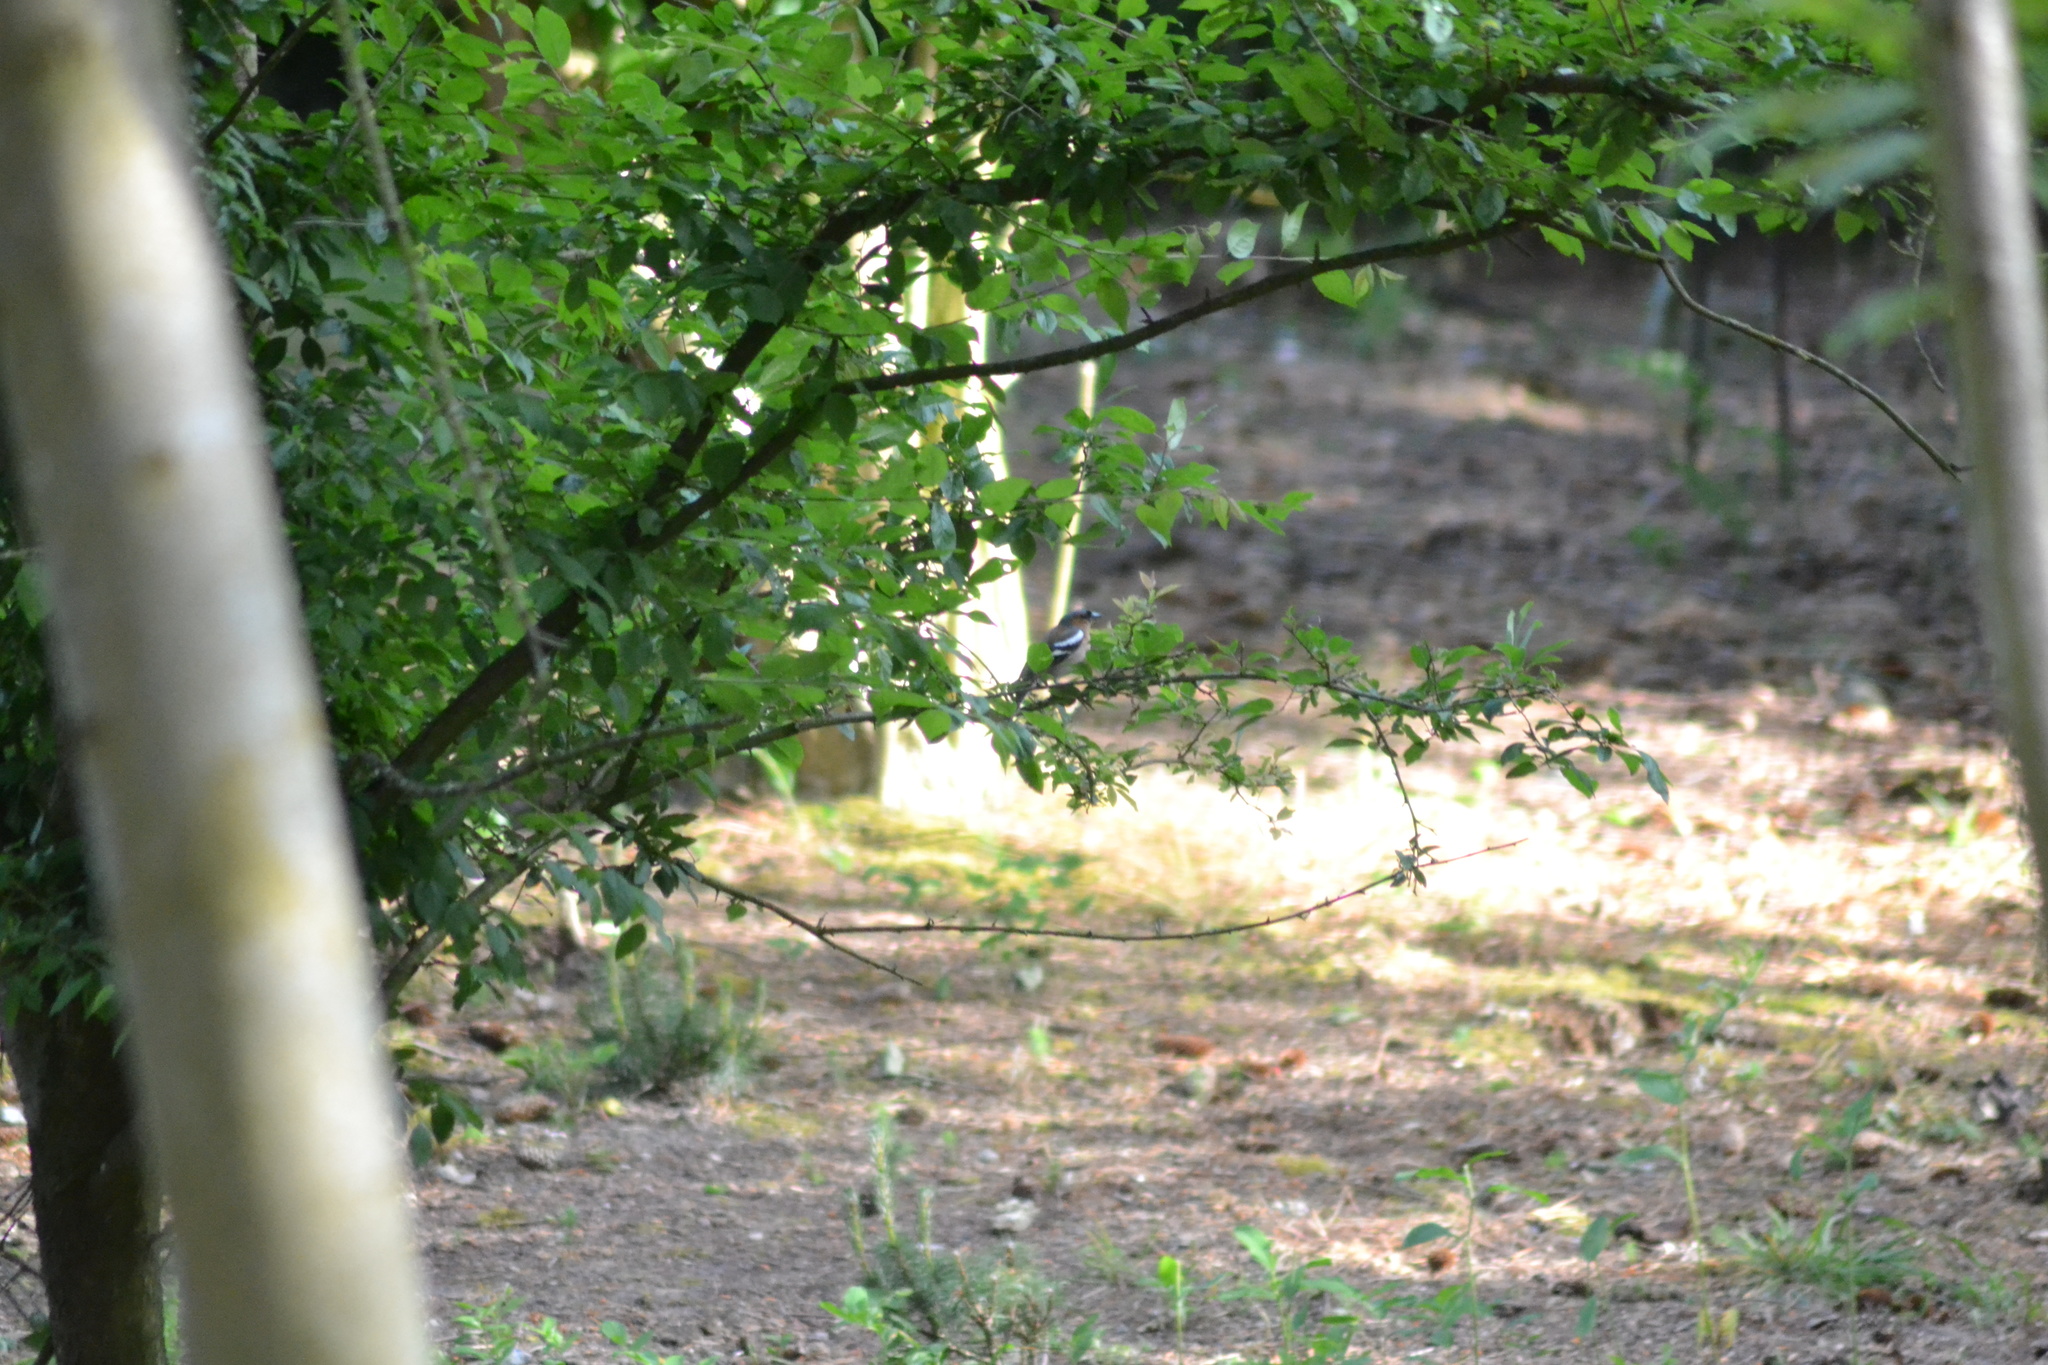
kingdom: Animalia
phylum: Chordata
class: Aves
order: Passeriformes
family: Fringillidae
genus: Fringilla
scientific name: Fringilla coelebs
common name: Common chaffinch
